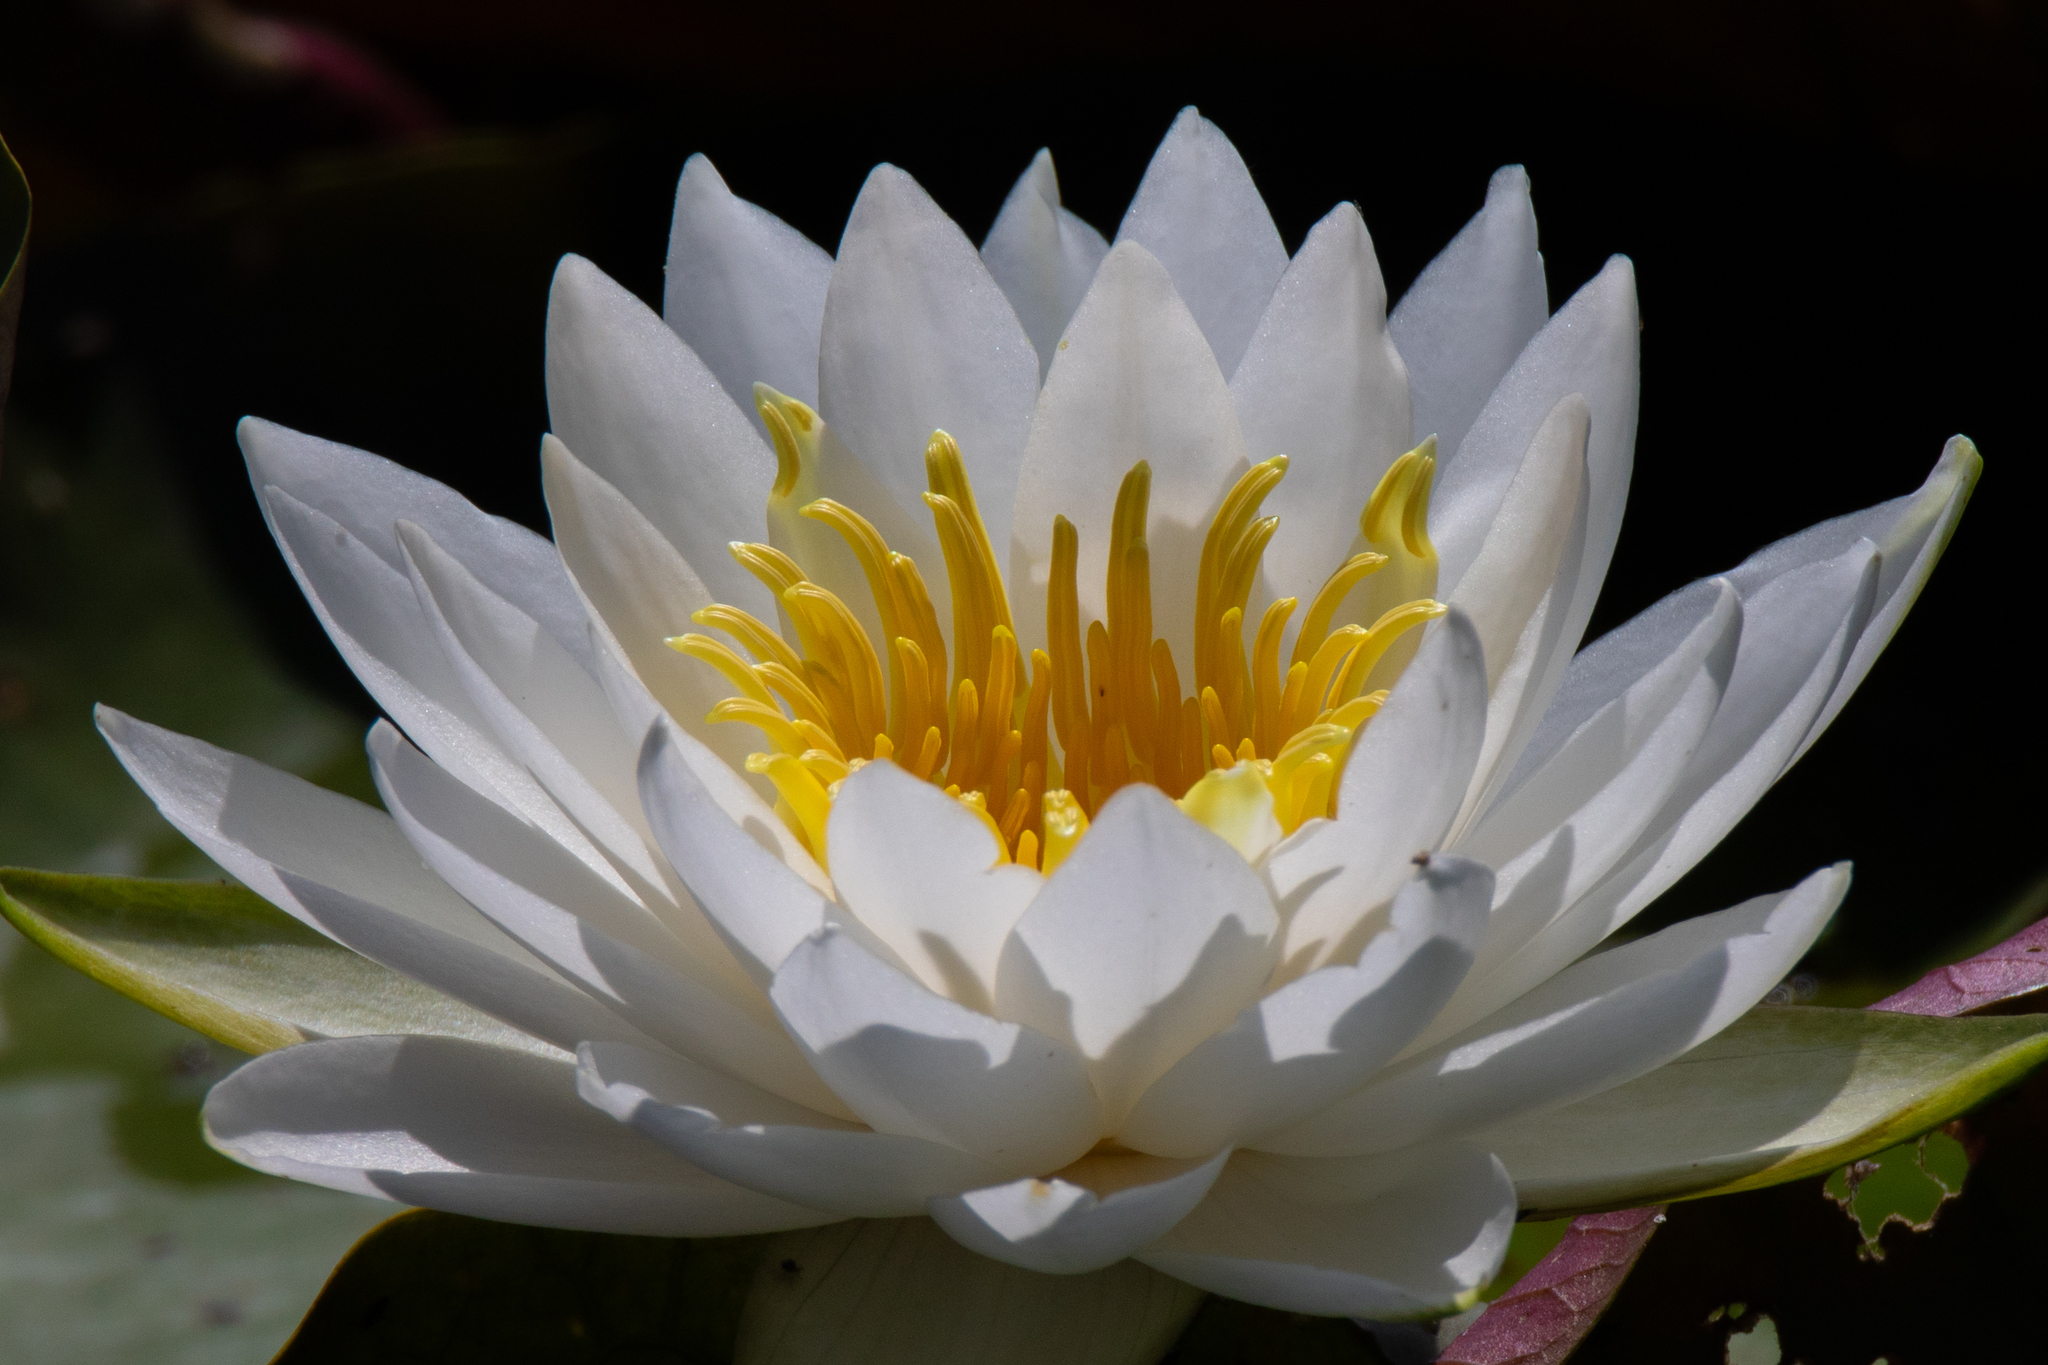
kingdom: Plantae
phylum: Tracheophyta
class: Magnoliopsida
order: Nymphaeales
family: Nymphaeaceae
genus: Nymphaea
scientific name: Nymphaea odorata
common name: Fragrant water-lily
